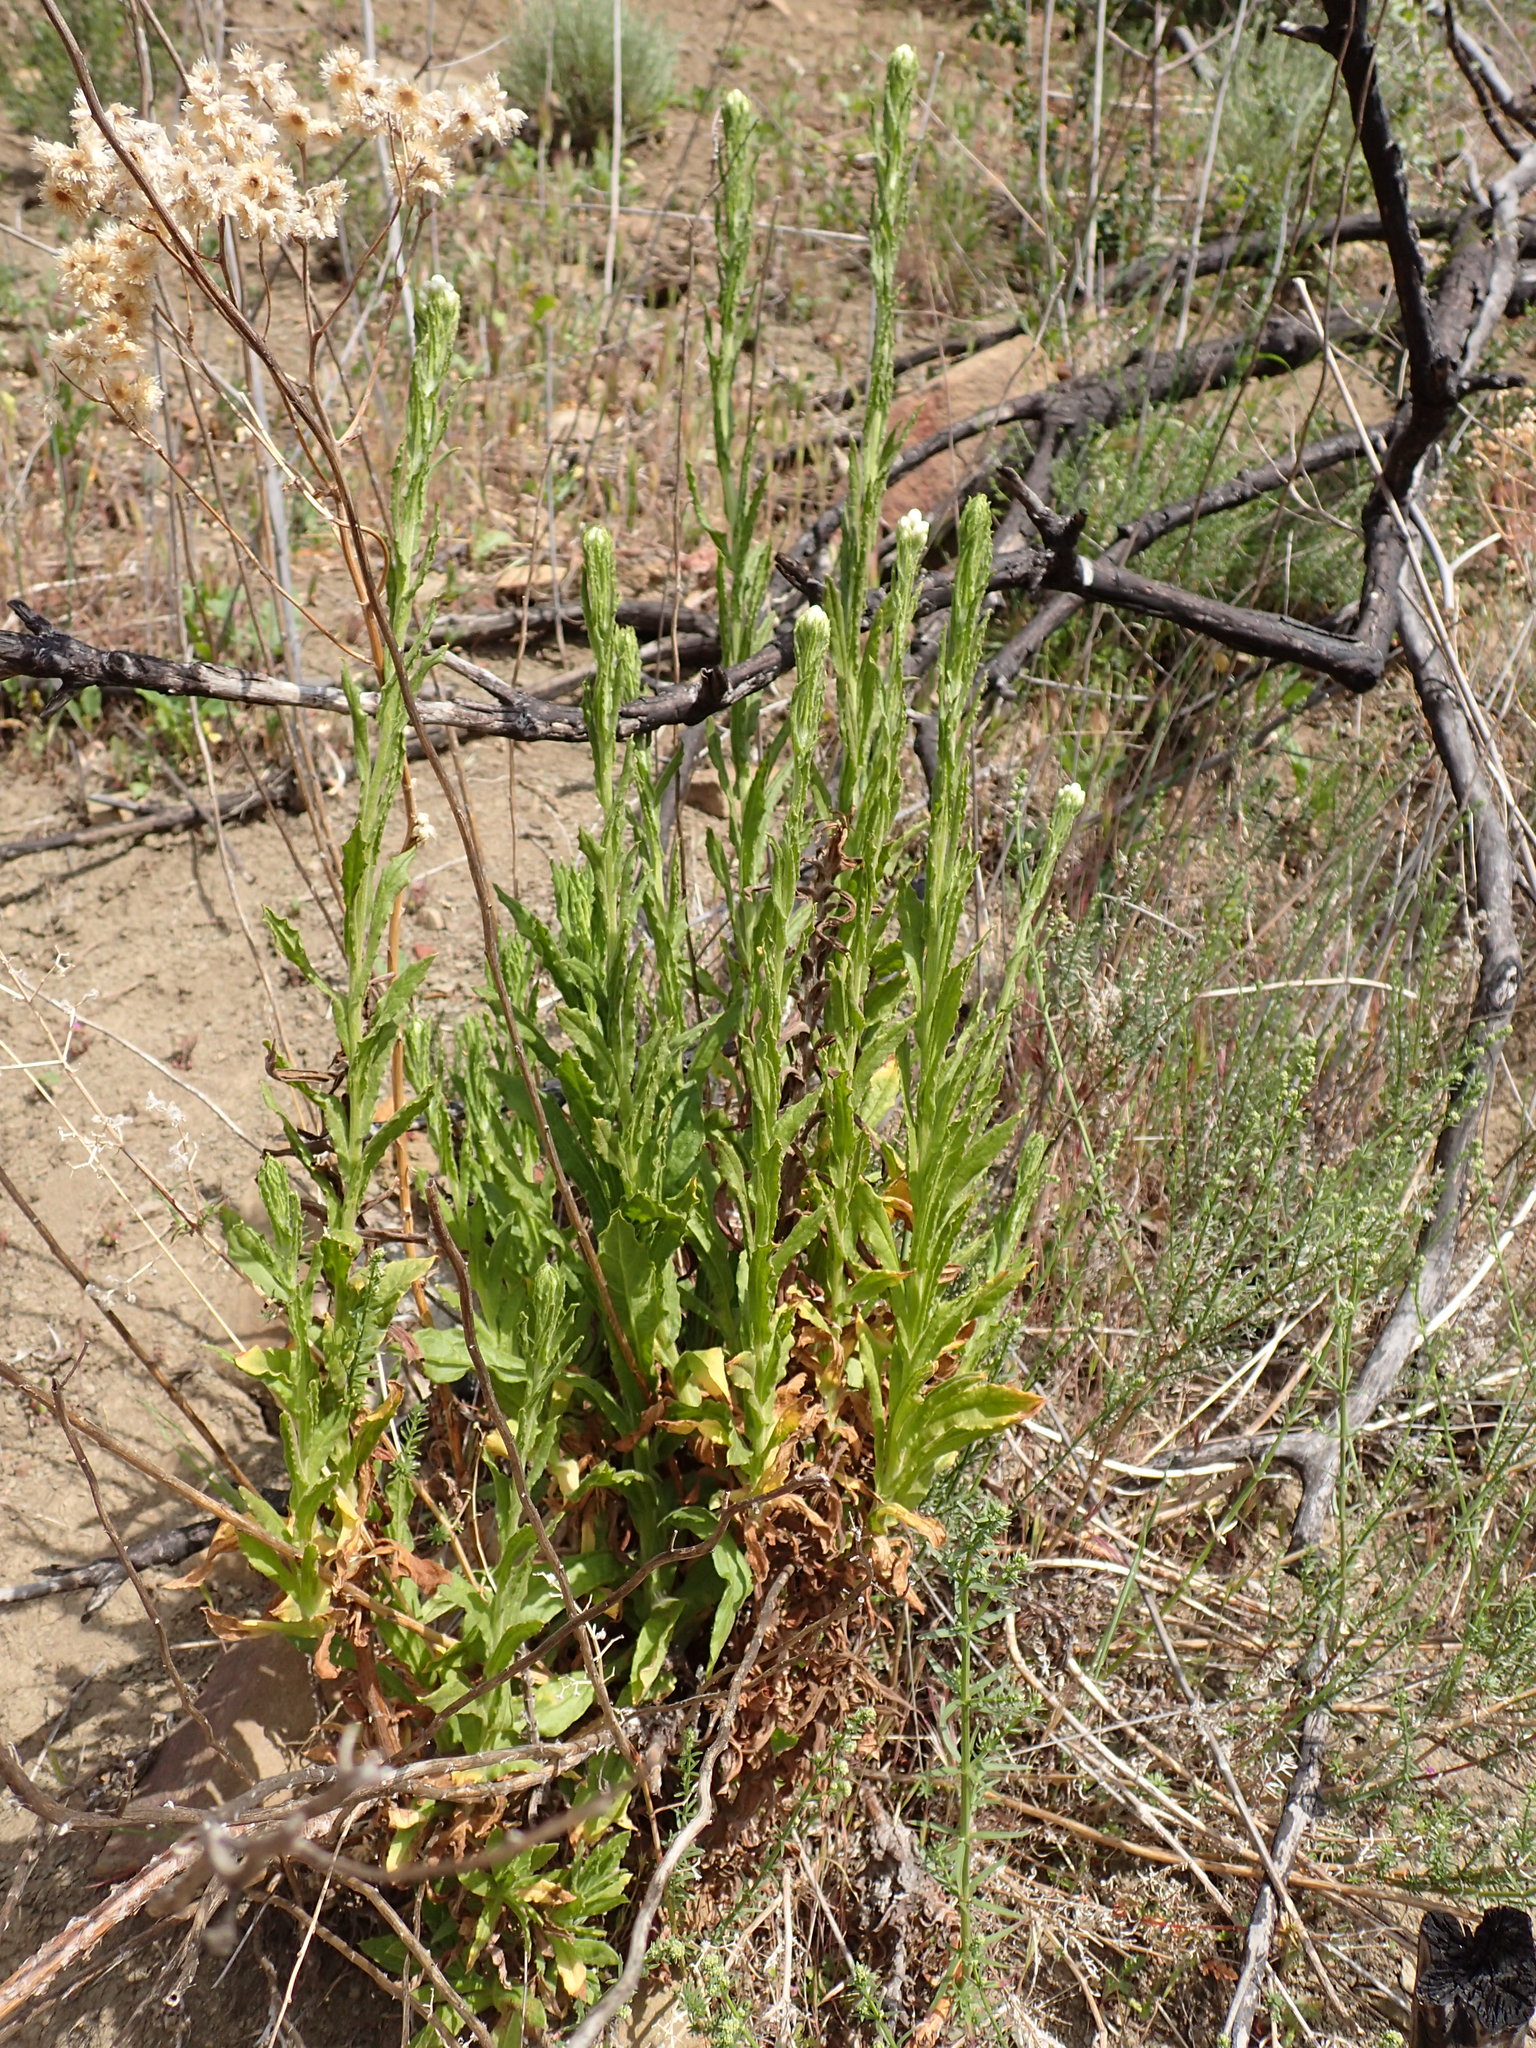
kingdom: Plantae
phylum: Tracheophyta
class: Magnoliopsida
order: Asterales
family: Asteraceae
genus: Pseudognaphalium
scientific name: Pseudognaphalium californicum
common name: California rabbit-tobacco
